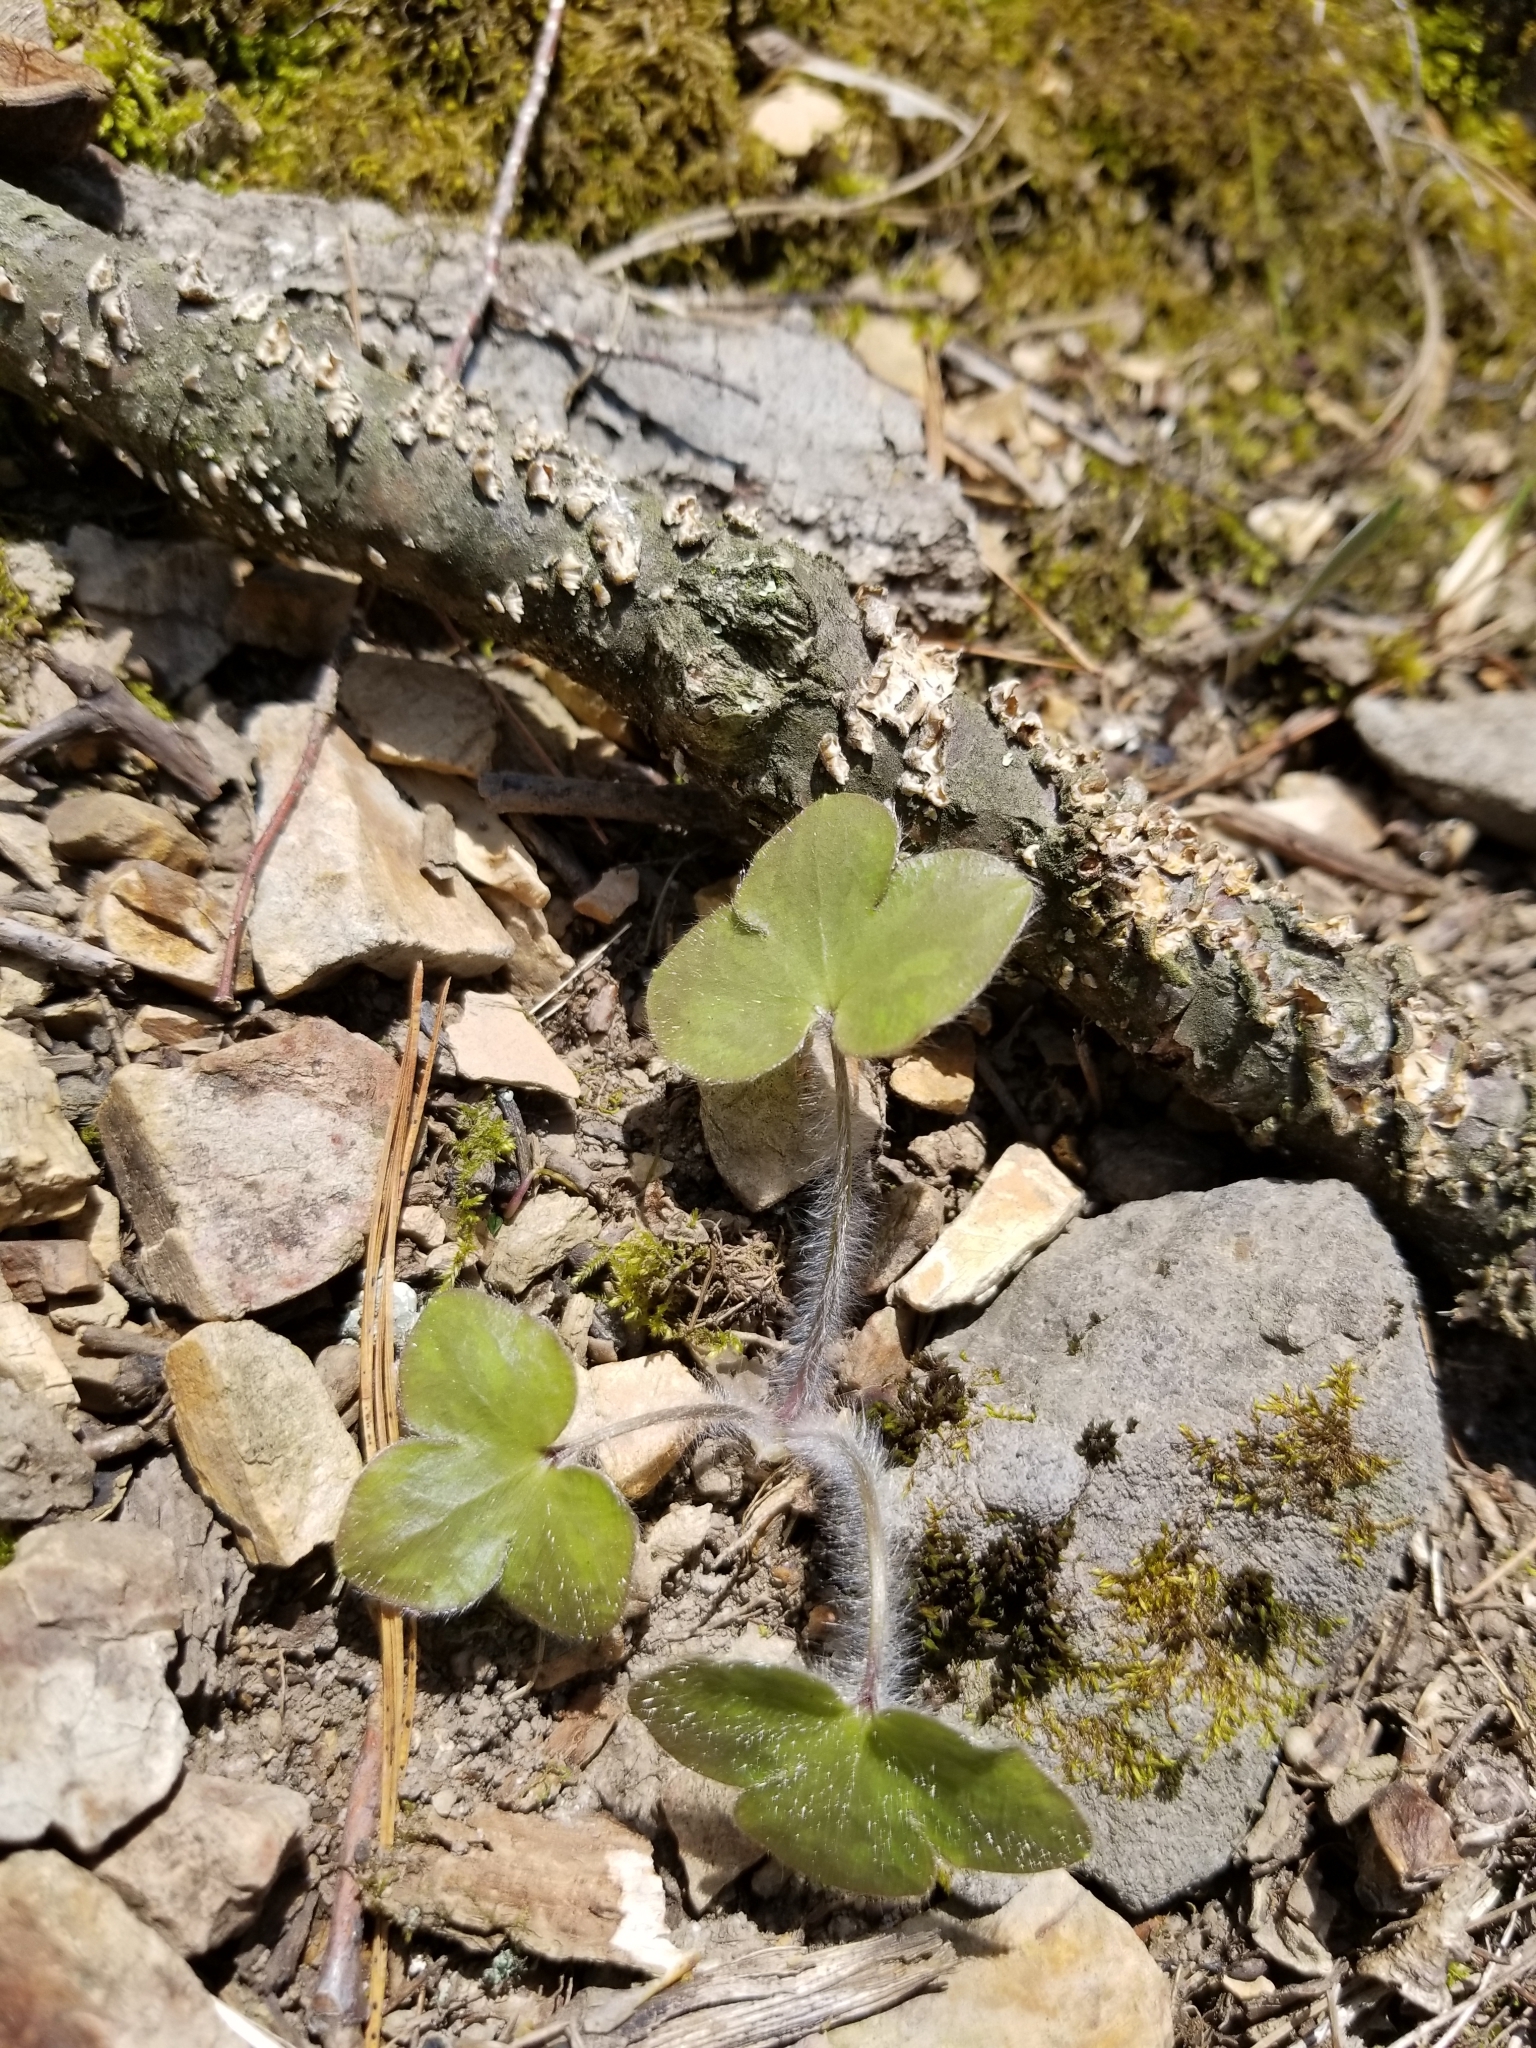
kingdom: Plantae
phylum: Tracheophyta
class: Magnoliopsida
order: Ranunculales
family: Ranunculaceae
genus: Hepatica
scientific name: Hepatica americana
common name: American hepatica
